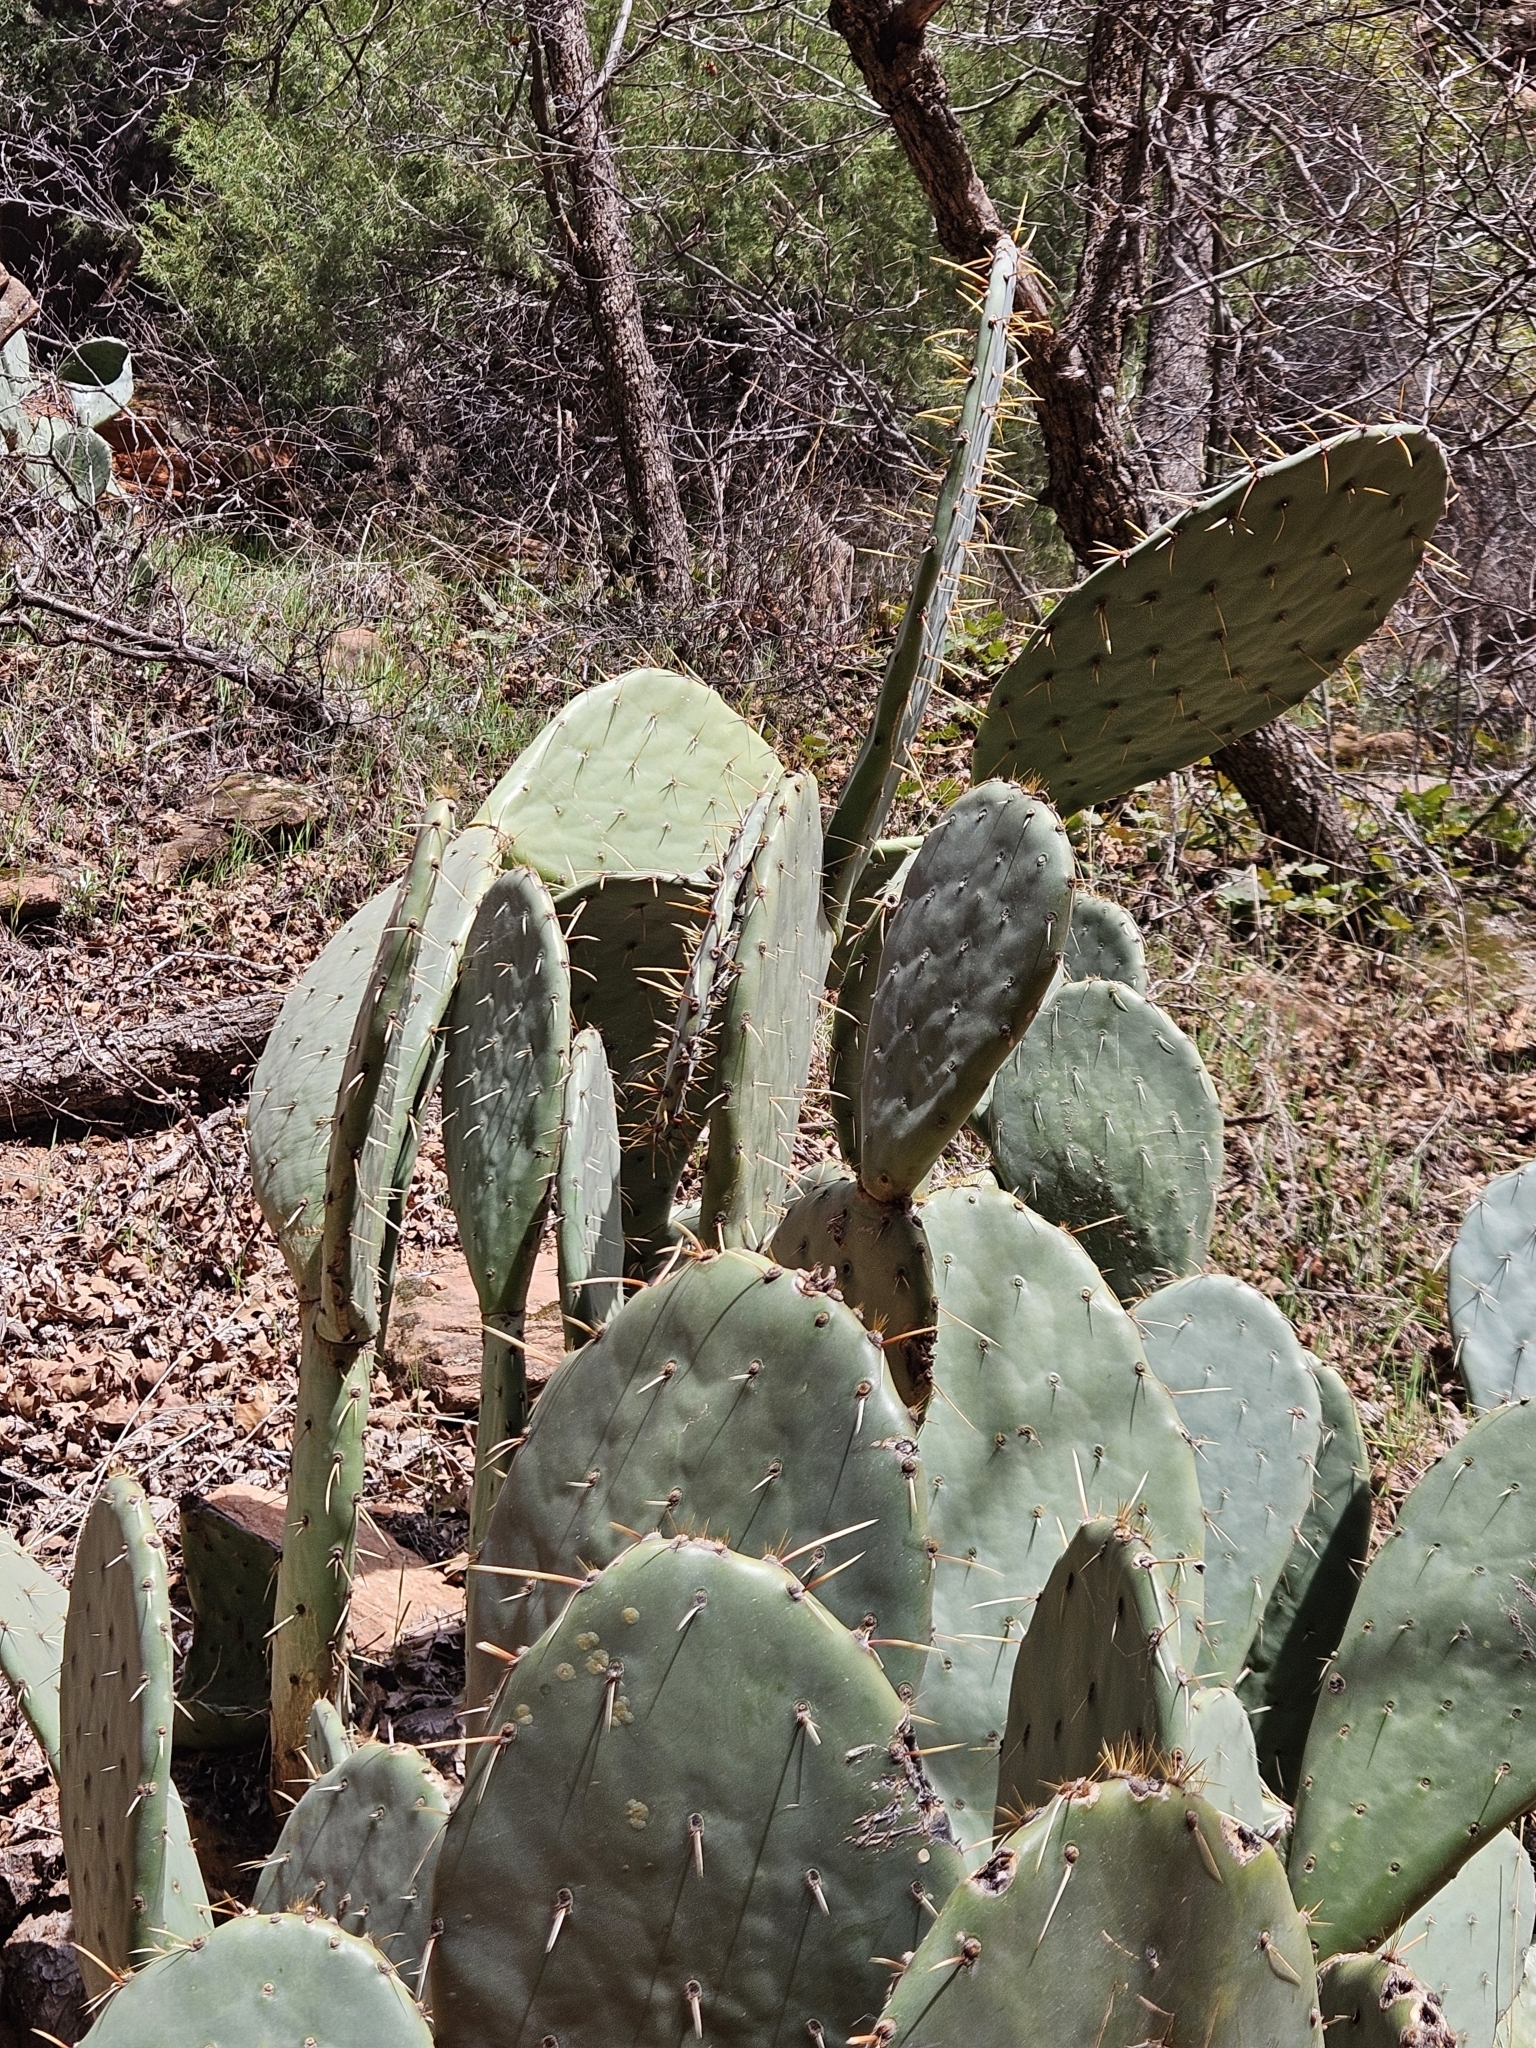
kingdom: Plantae
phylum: Tracheophyta
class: Magnoliopsida
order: Caryophyllales
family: Cactaceae
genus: Opuntia
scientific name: Opuntia engelmannii
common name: Cactus-apple
